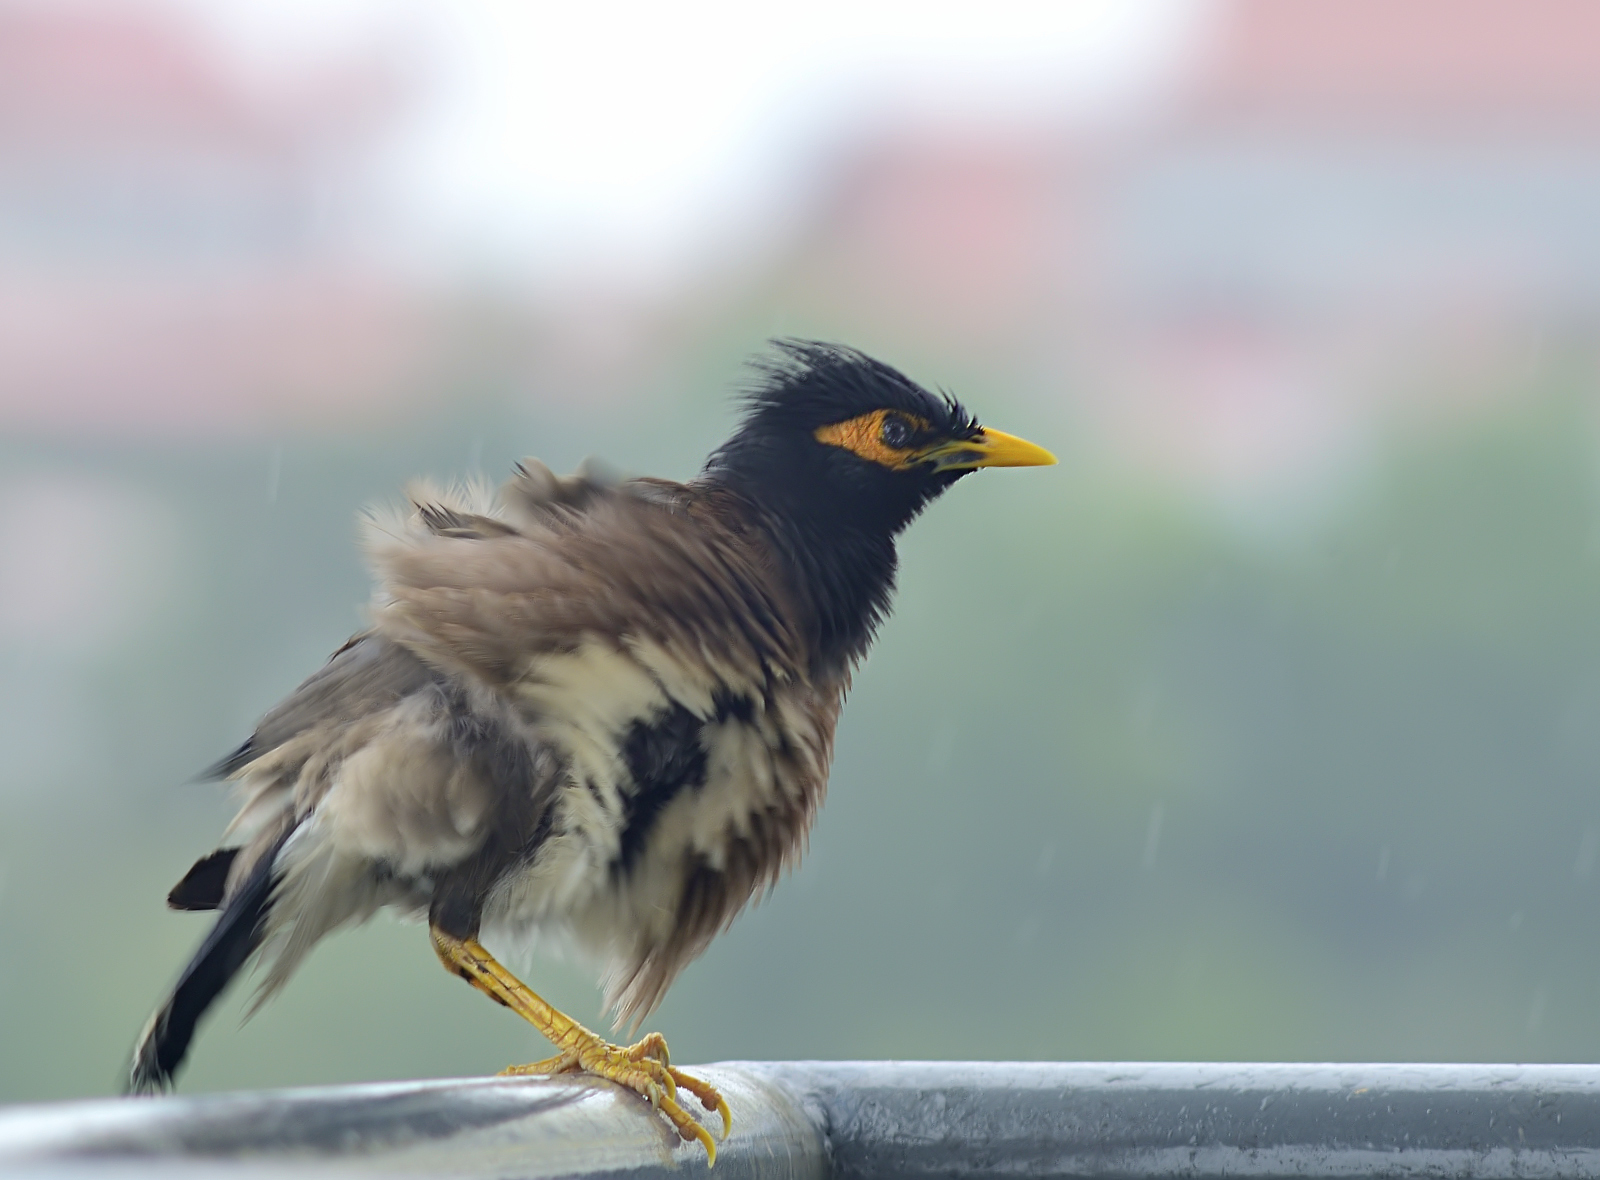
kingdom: Animalia
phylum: Chordata
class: Aves
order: Passeriformes
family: Sturnidae
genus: Acridotheres
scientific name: Acridotheres tristis
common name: Common myna
